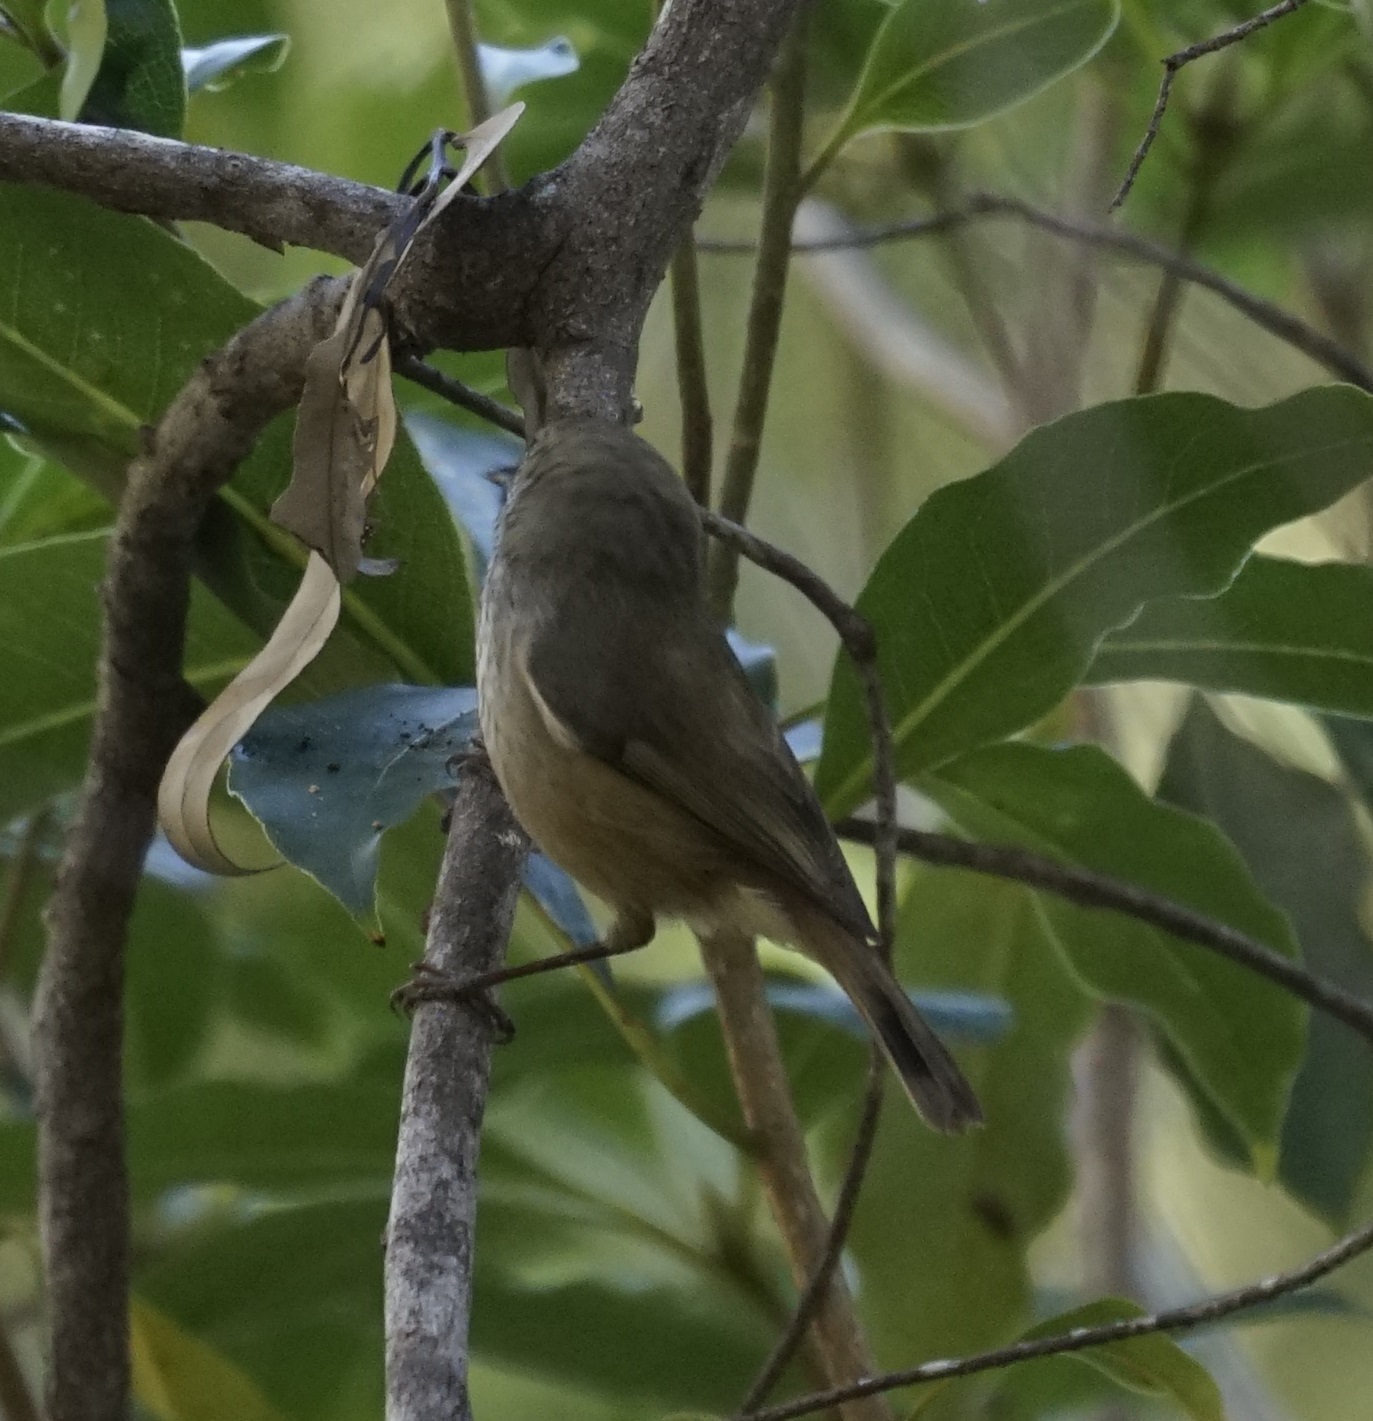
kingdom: Animalia
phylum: Chordata
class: Aves
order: Passeriformes
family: Acanthizidae
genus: Acanthiza
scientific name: Acanthiza pusilla
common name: Brown thornbill
